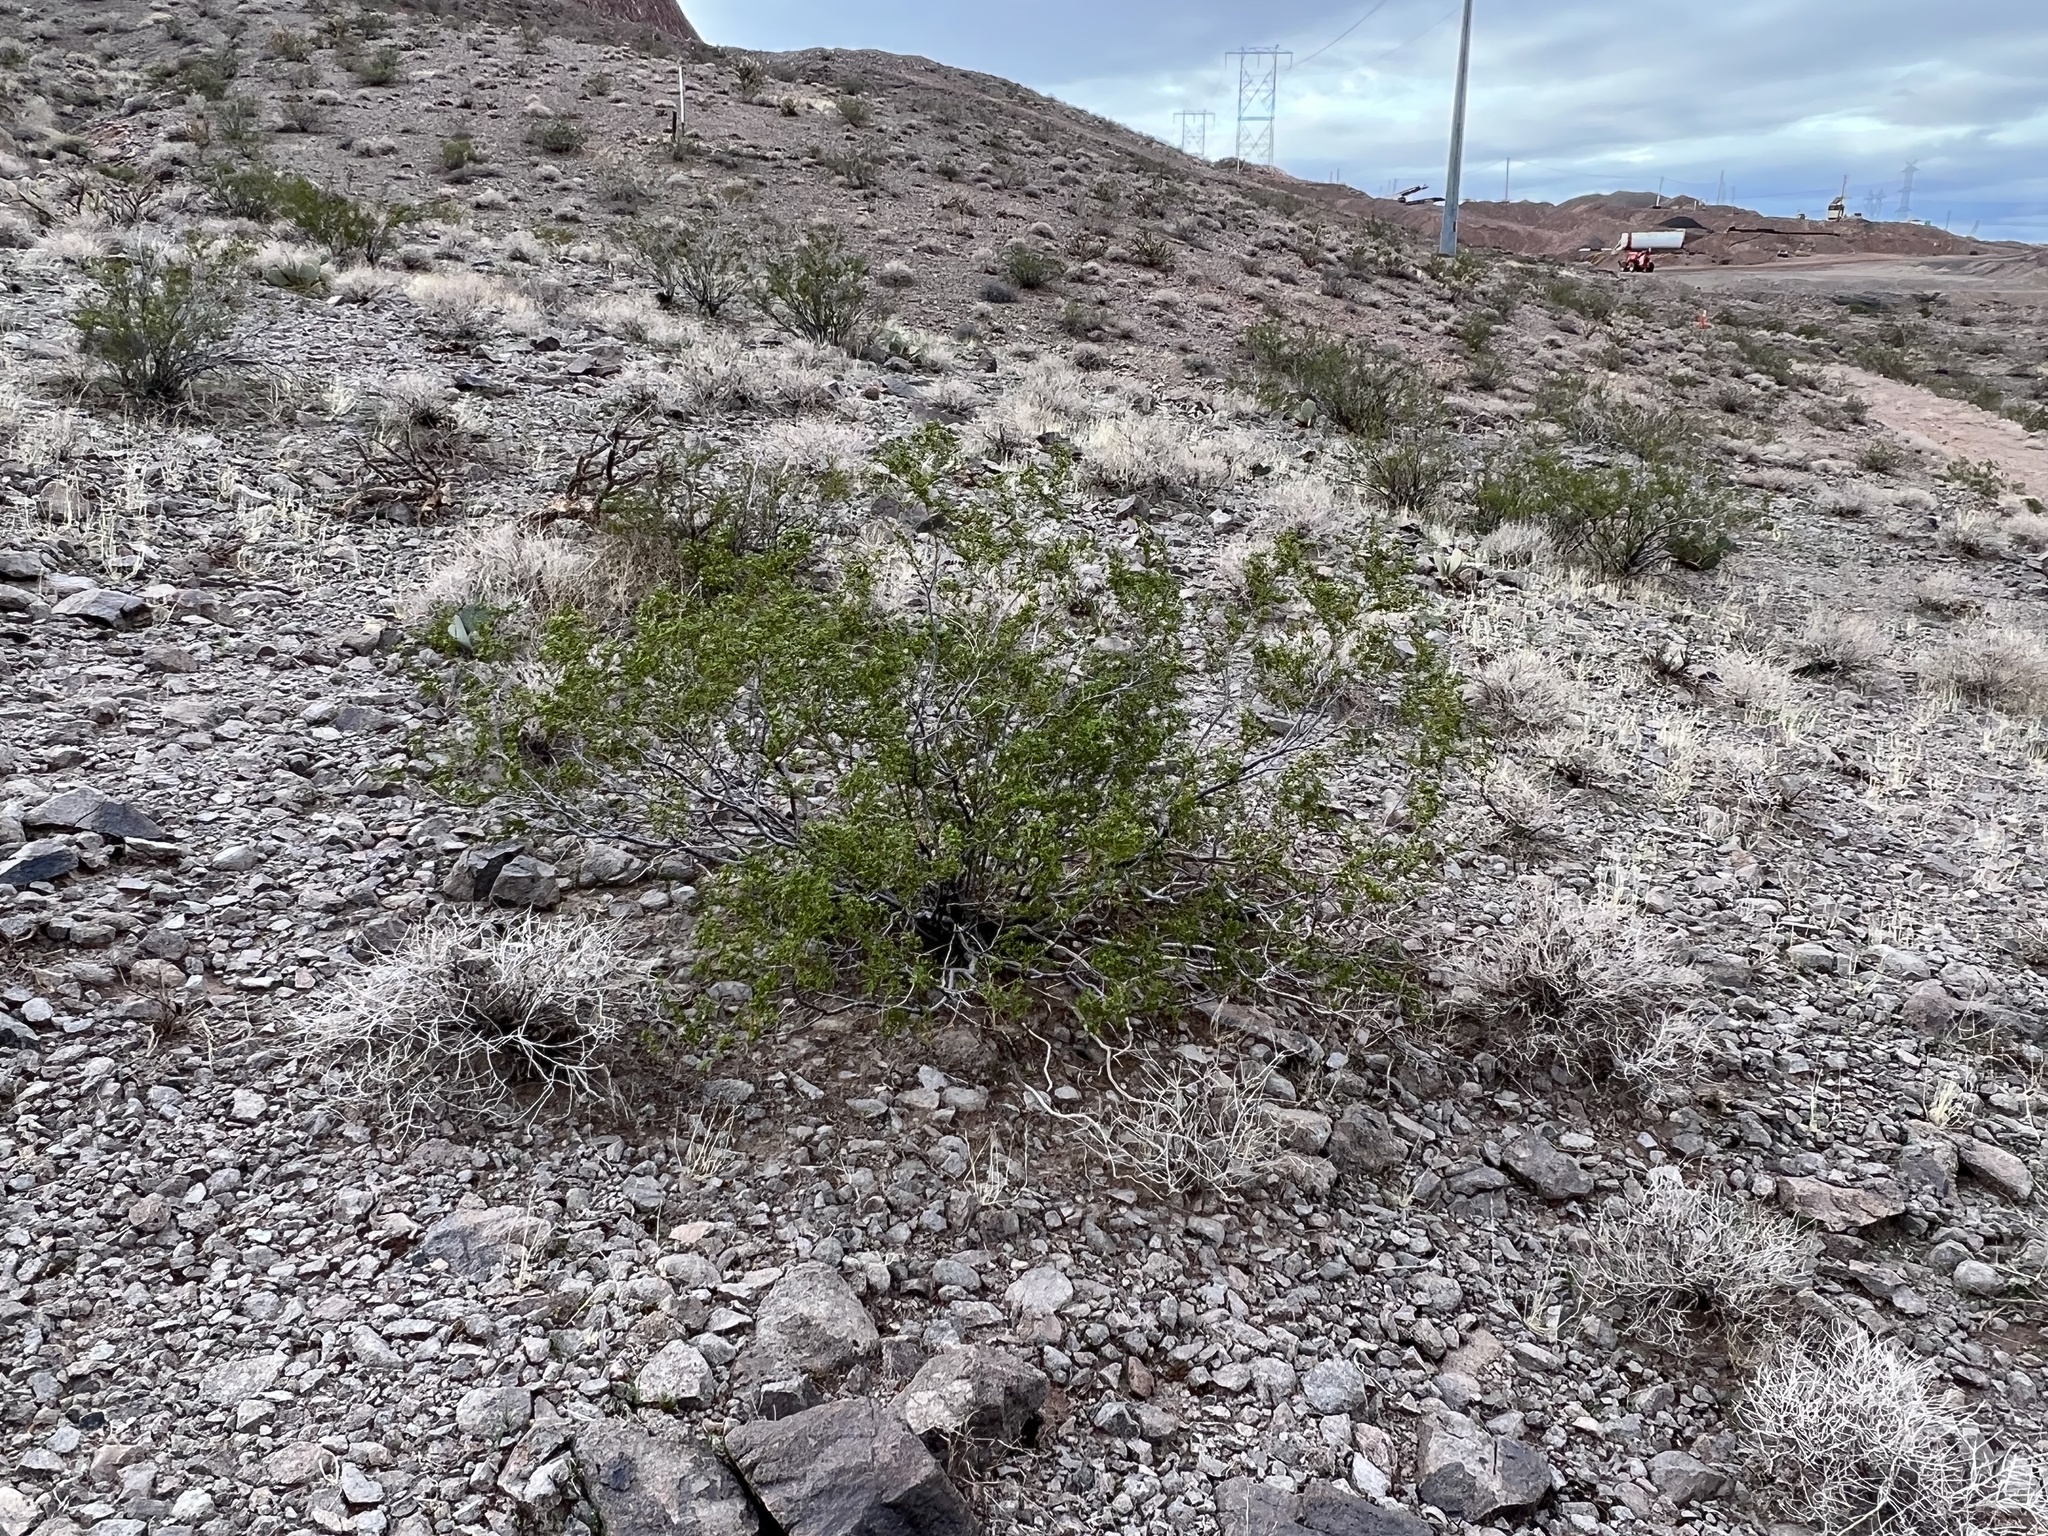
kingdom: Plantae
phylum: Tracheophyta
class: Magnoliopsida
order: Zygophyllales
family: Zygophyllaceae
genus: Larrea
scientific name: Larrea tridentata
